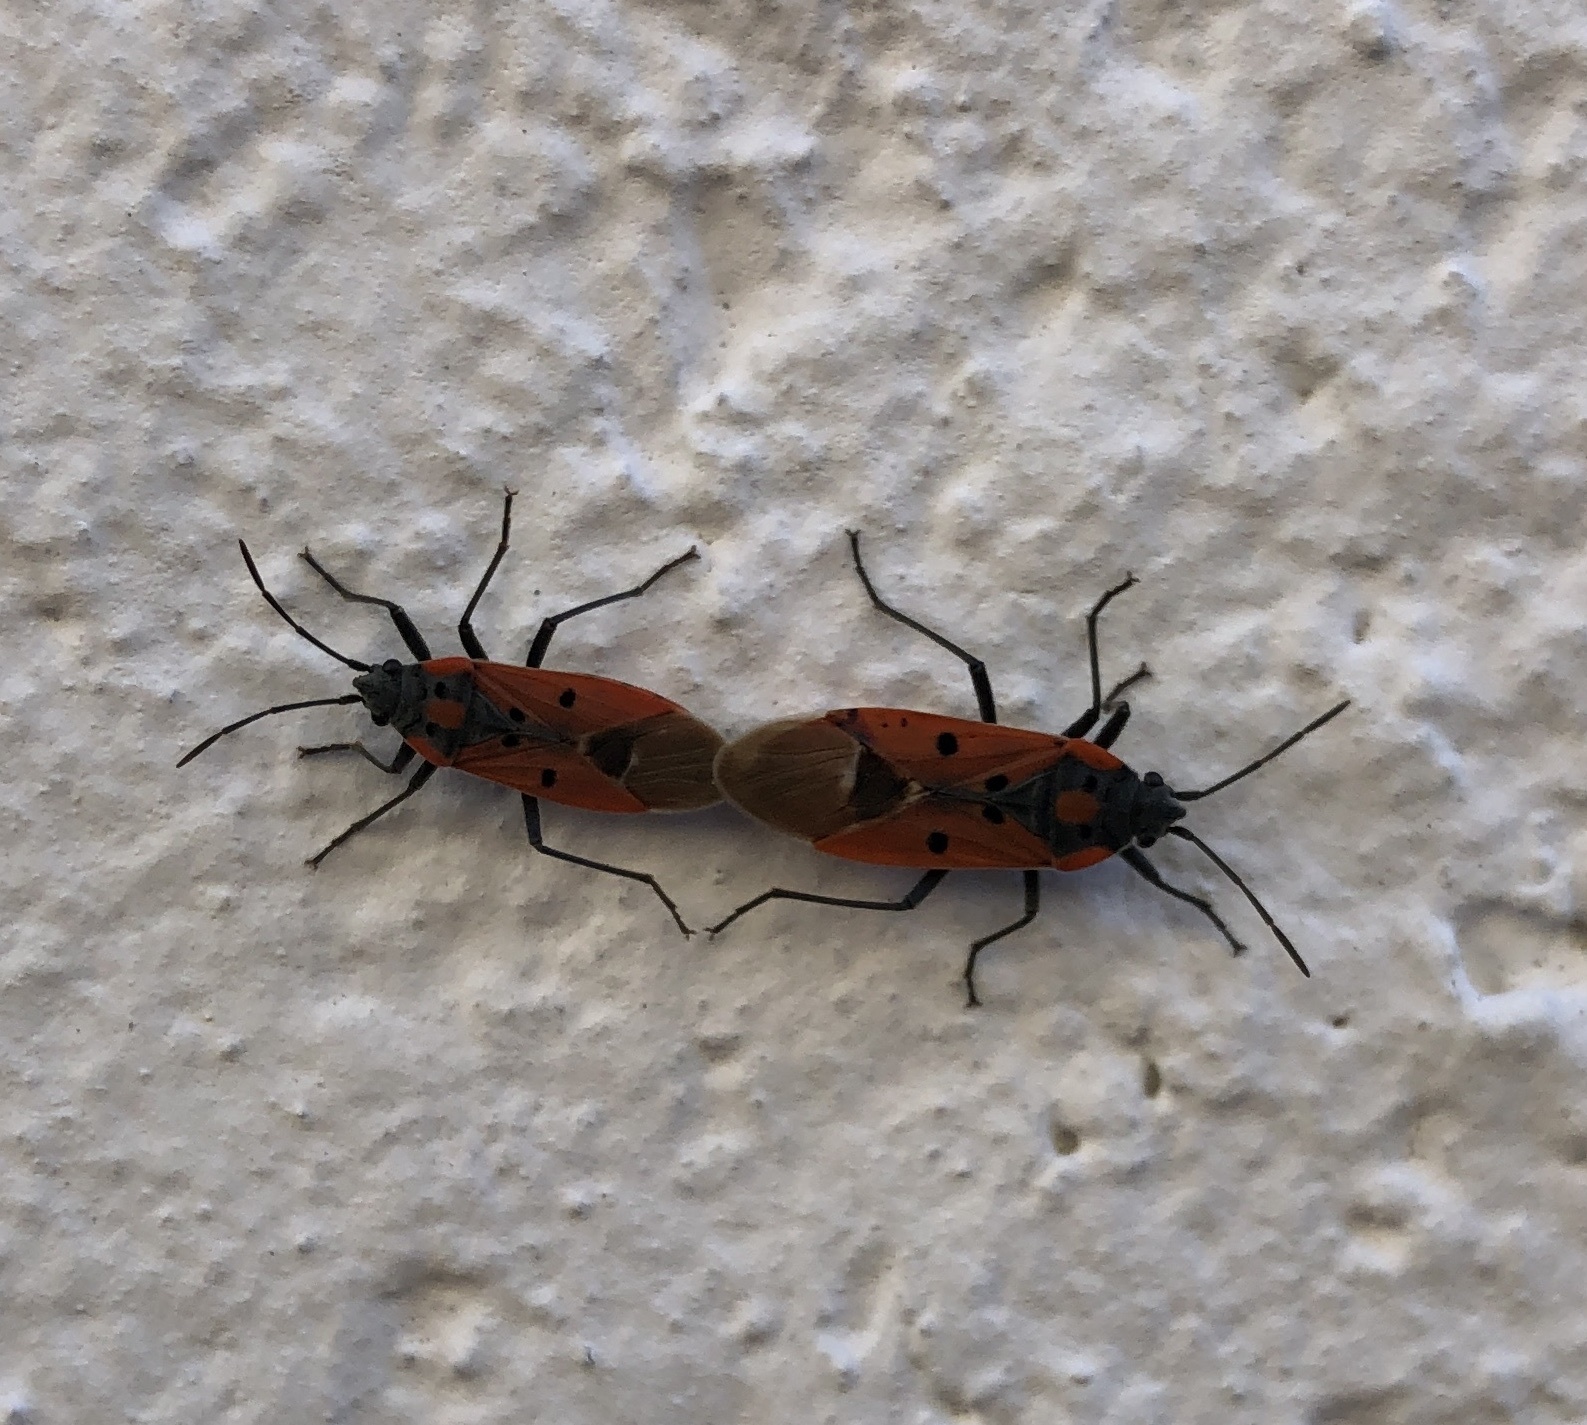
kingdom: Animalia
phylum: Arthropoda
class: Insecta
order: Hemiptera
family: Lygaeidae
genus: Lygaeus
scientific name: Lygaeus creticus
